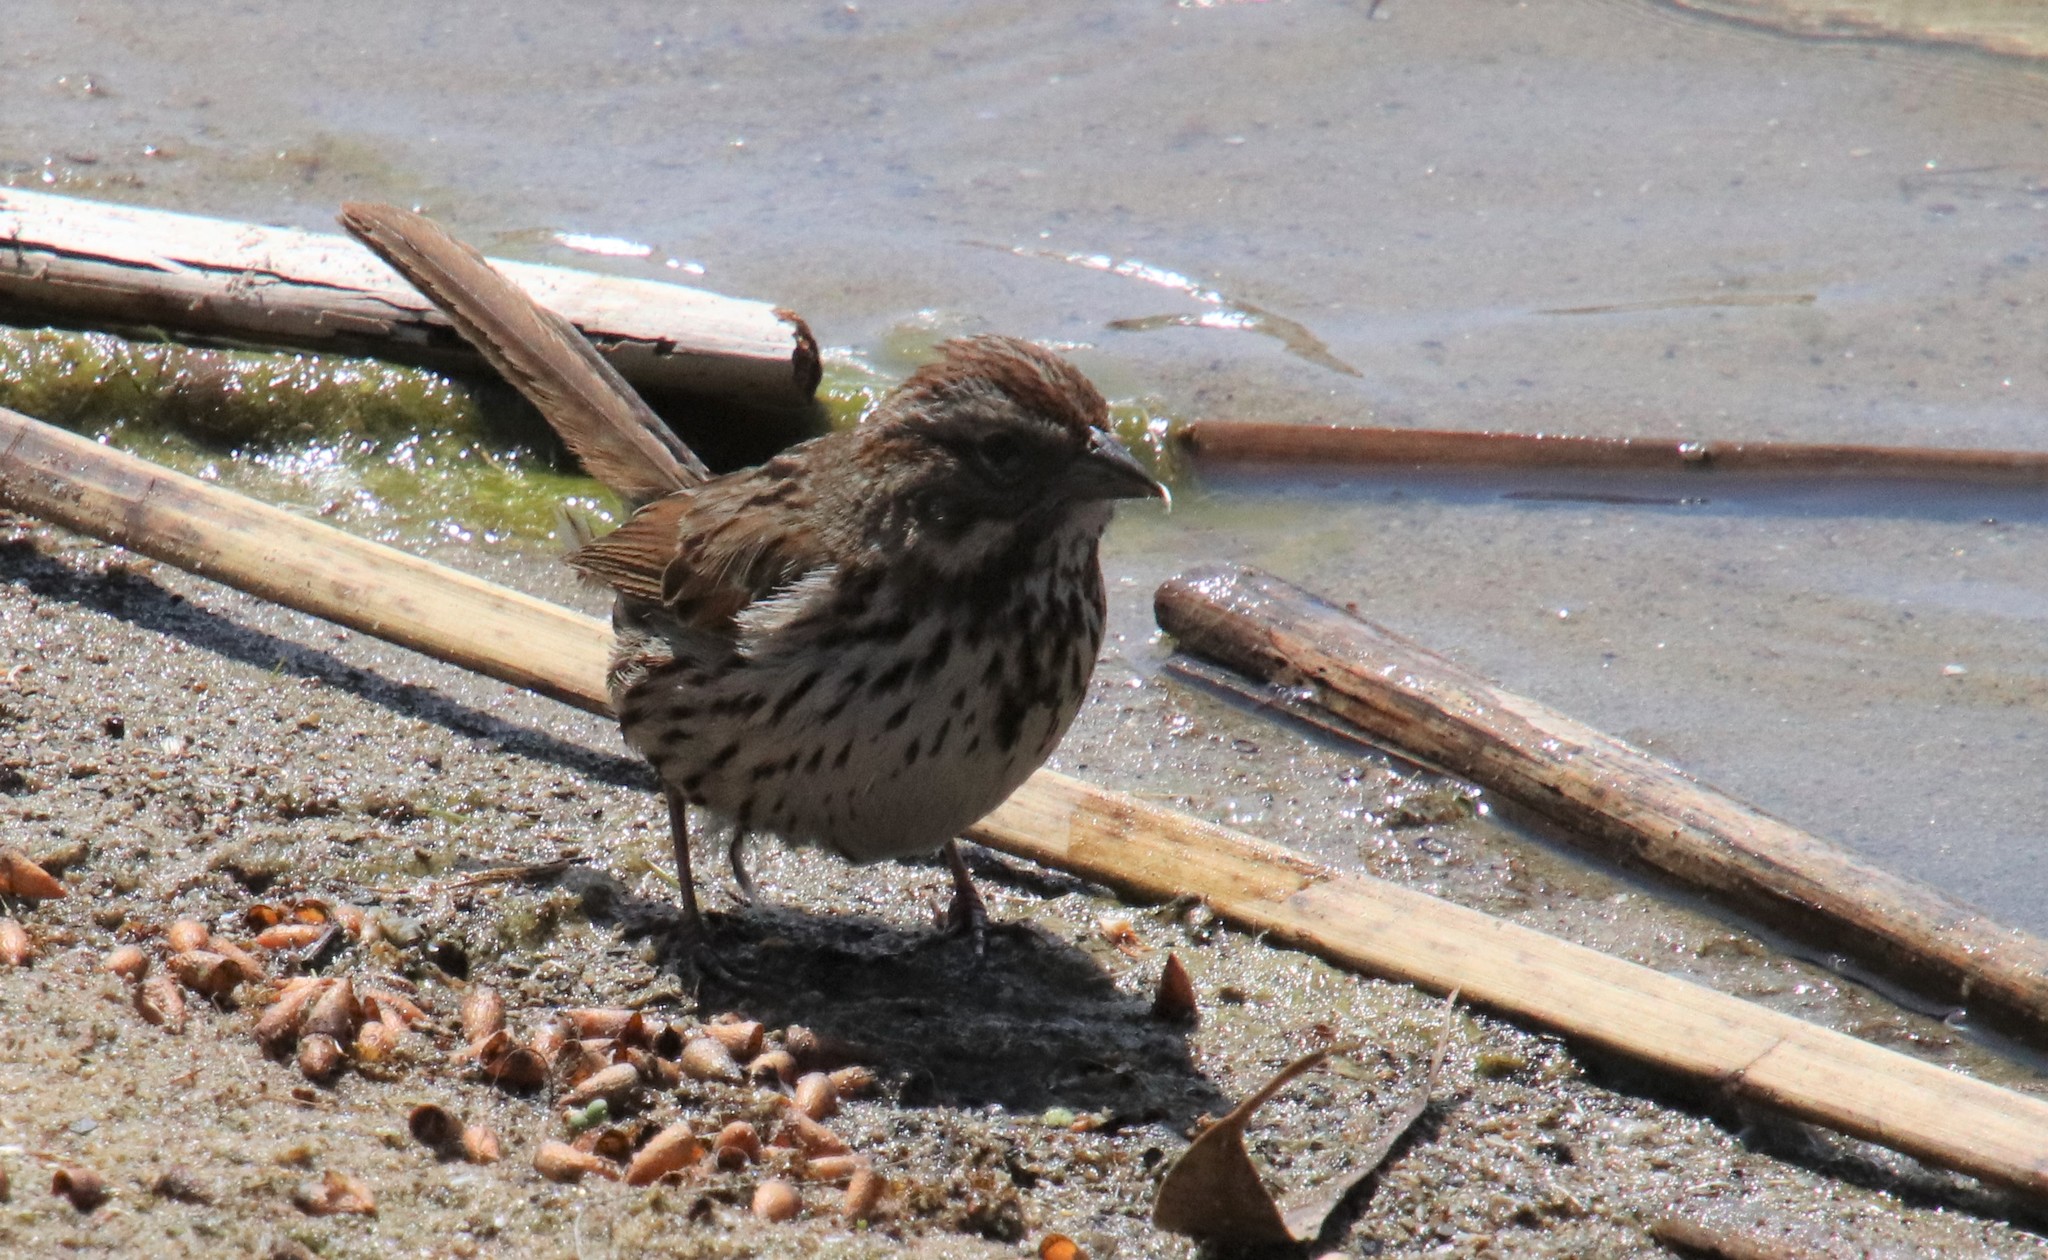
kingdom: Animalia
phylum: Chordata
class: Aves
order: Passeriformes
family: Passerellidae
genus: Melospiza
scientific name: Melospiza melodia
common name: Song sparrow
